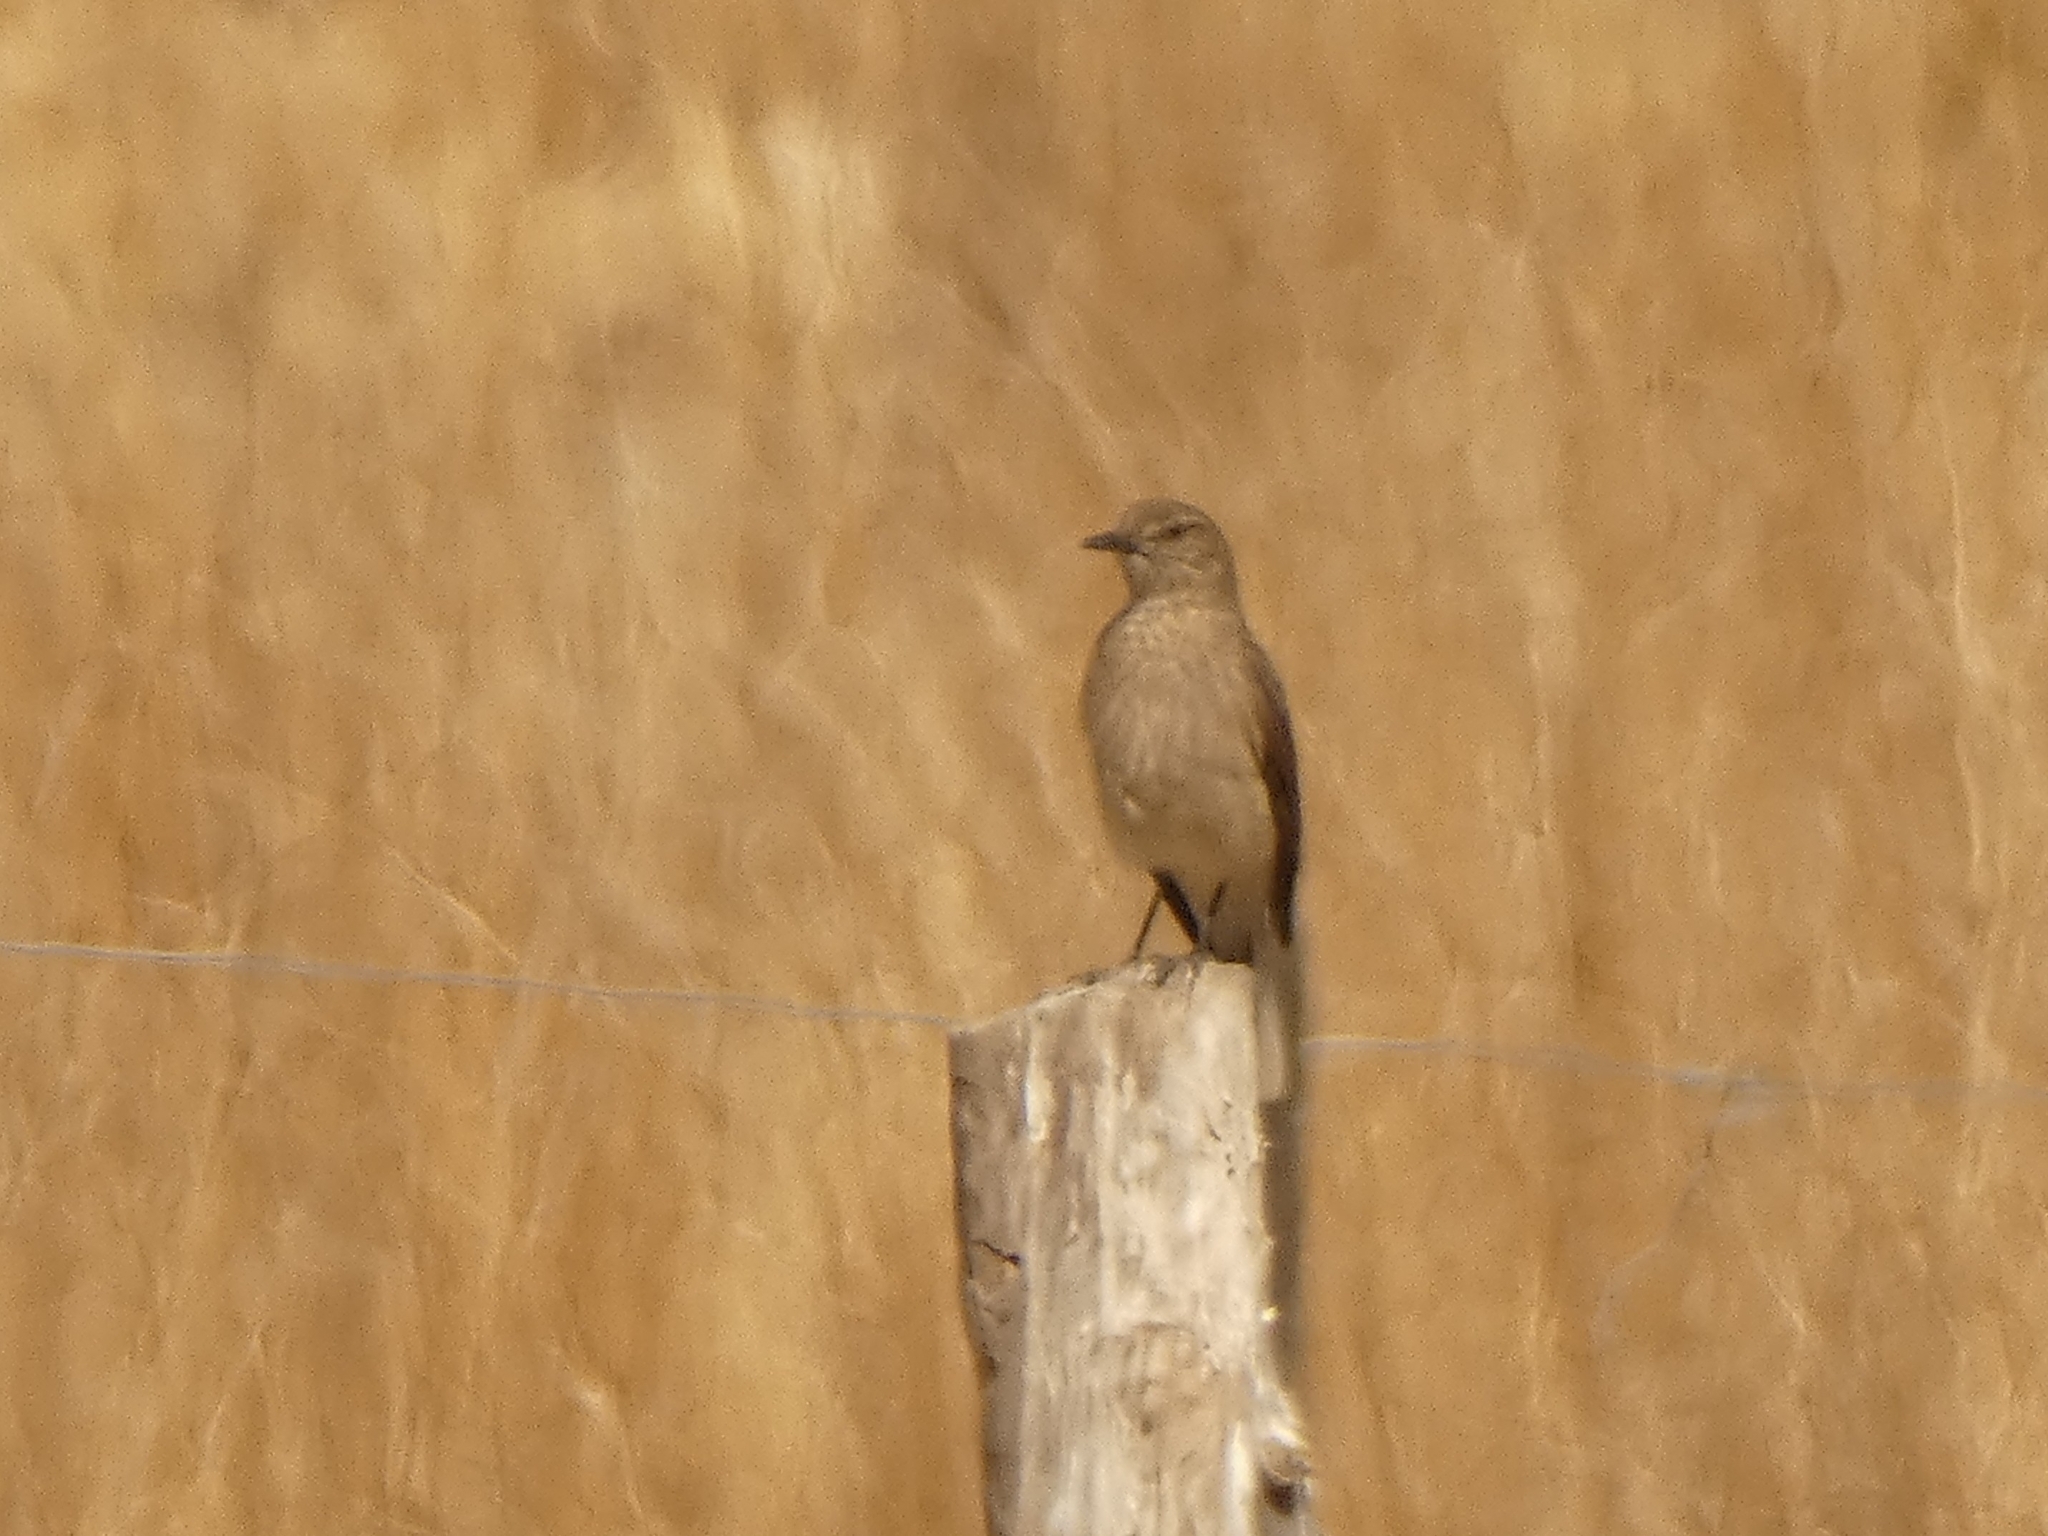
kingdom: Animalia
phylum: Chordata
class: Aves
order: Passeriformes
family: Tyrannidae
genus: Agriornis
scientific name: Agriornis montanus
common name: Black-billed shrike-tyrant
